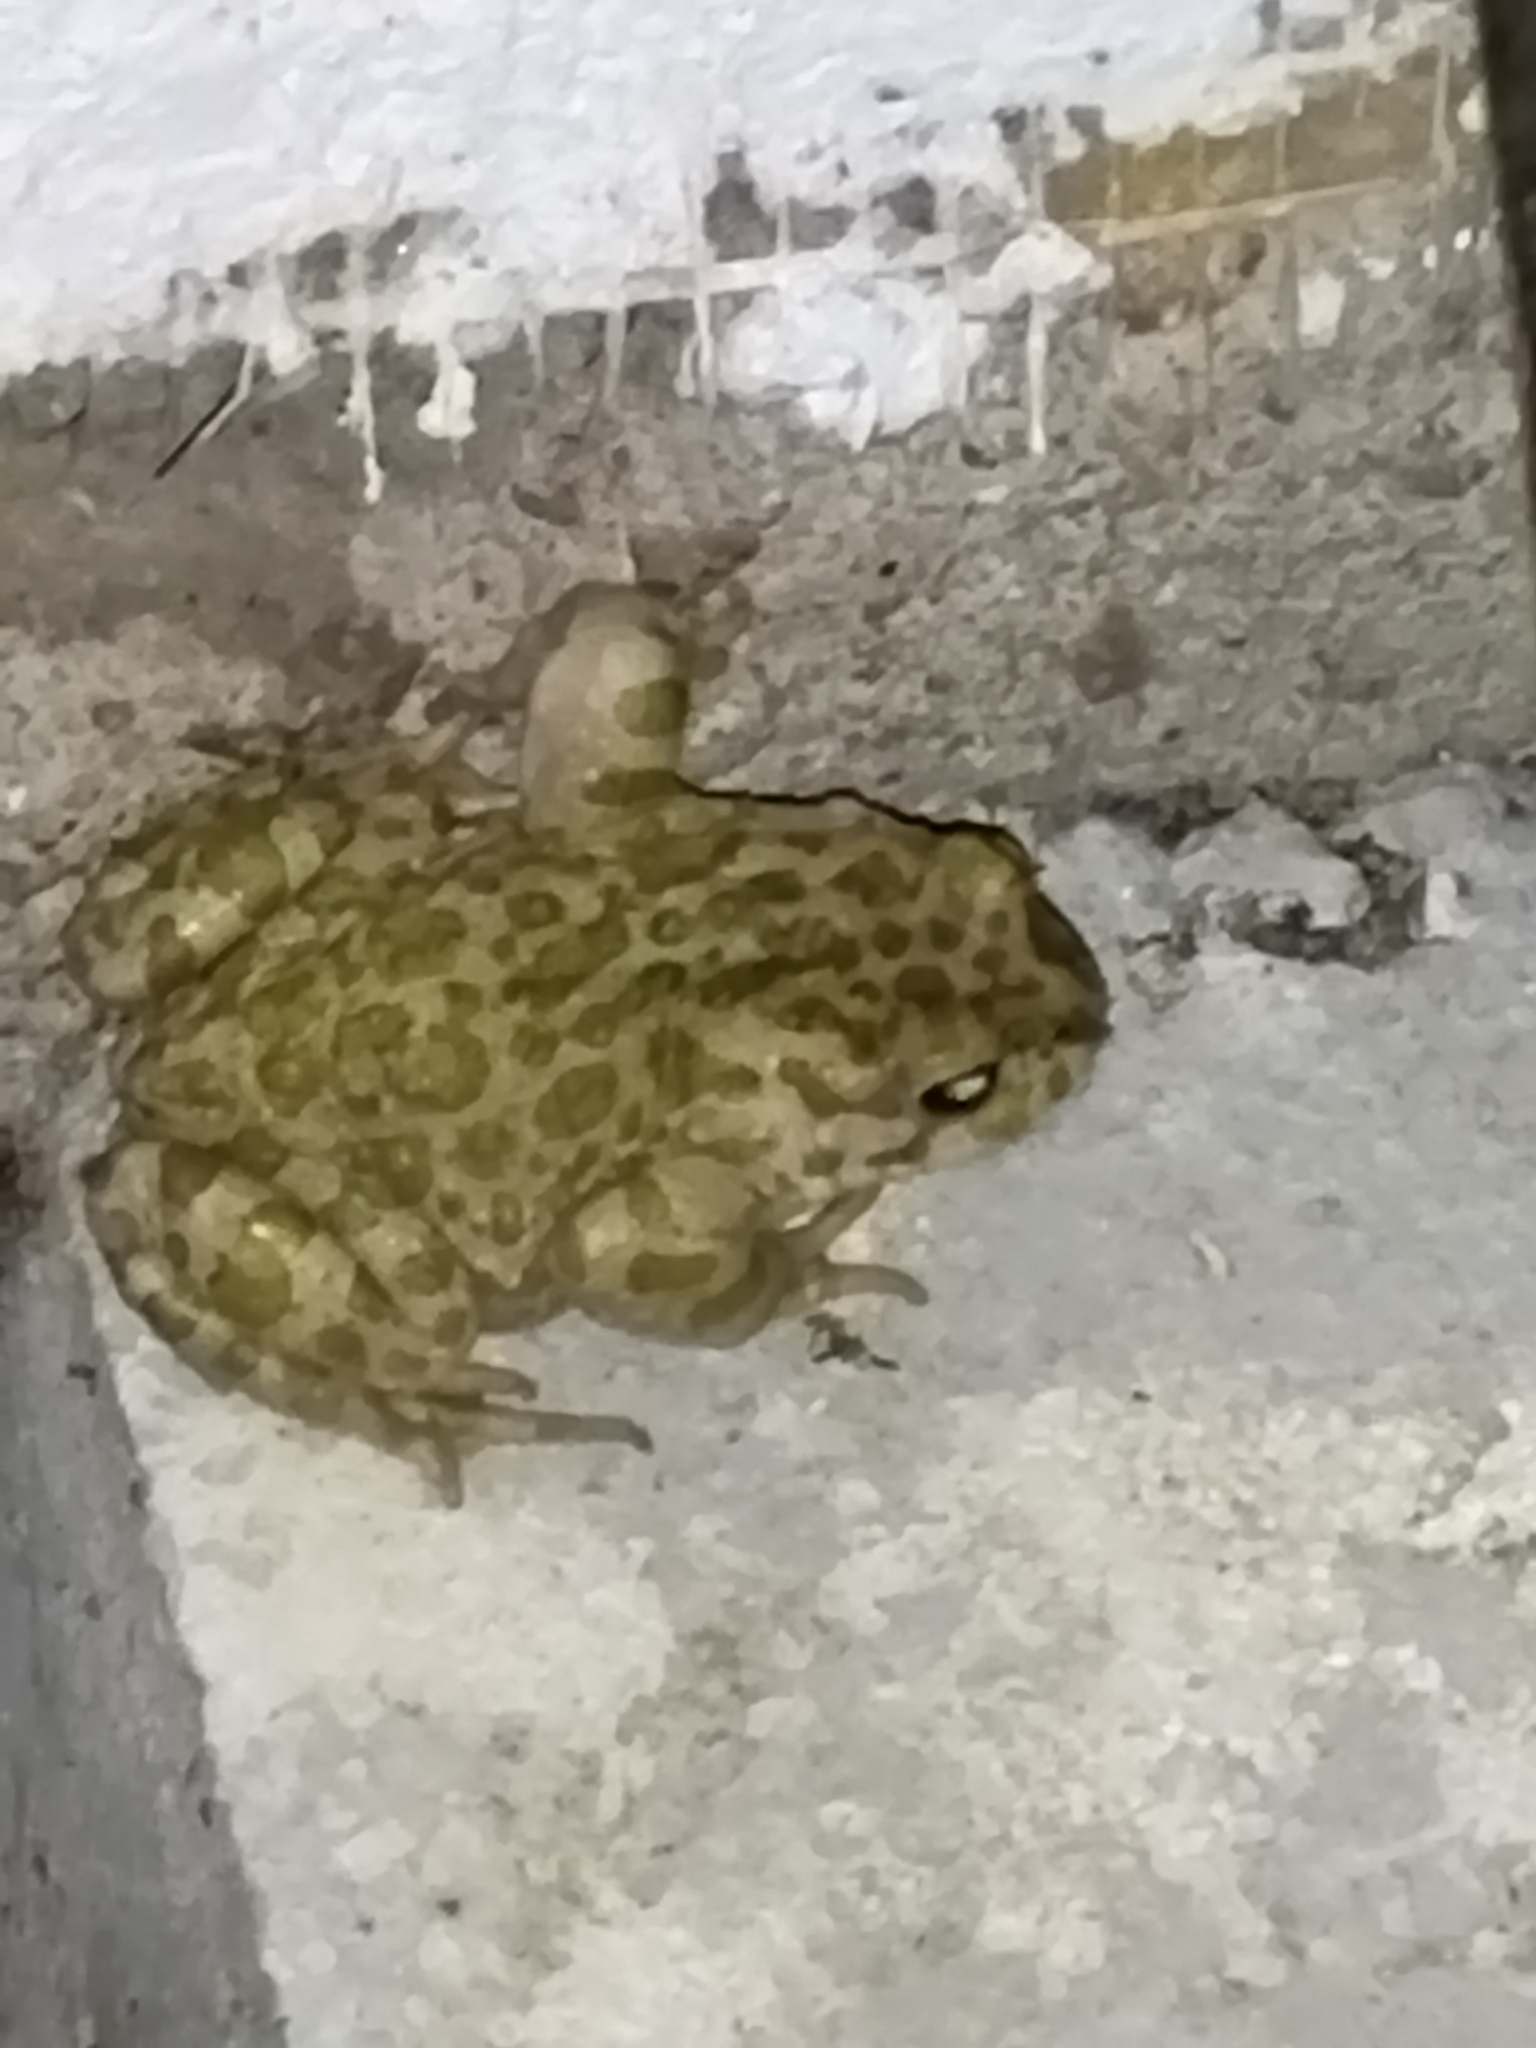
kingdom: Animalia
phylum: Chordata
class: Amphibia
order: Anura
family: Bufonidae
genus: Bufotes
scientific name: Bufotes viridis
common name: European green toad
